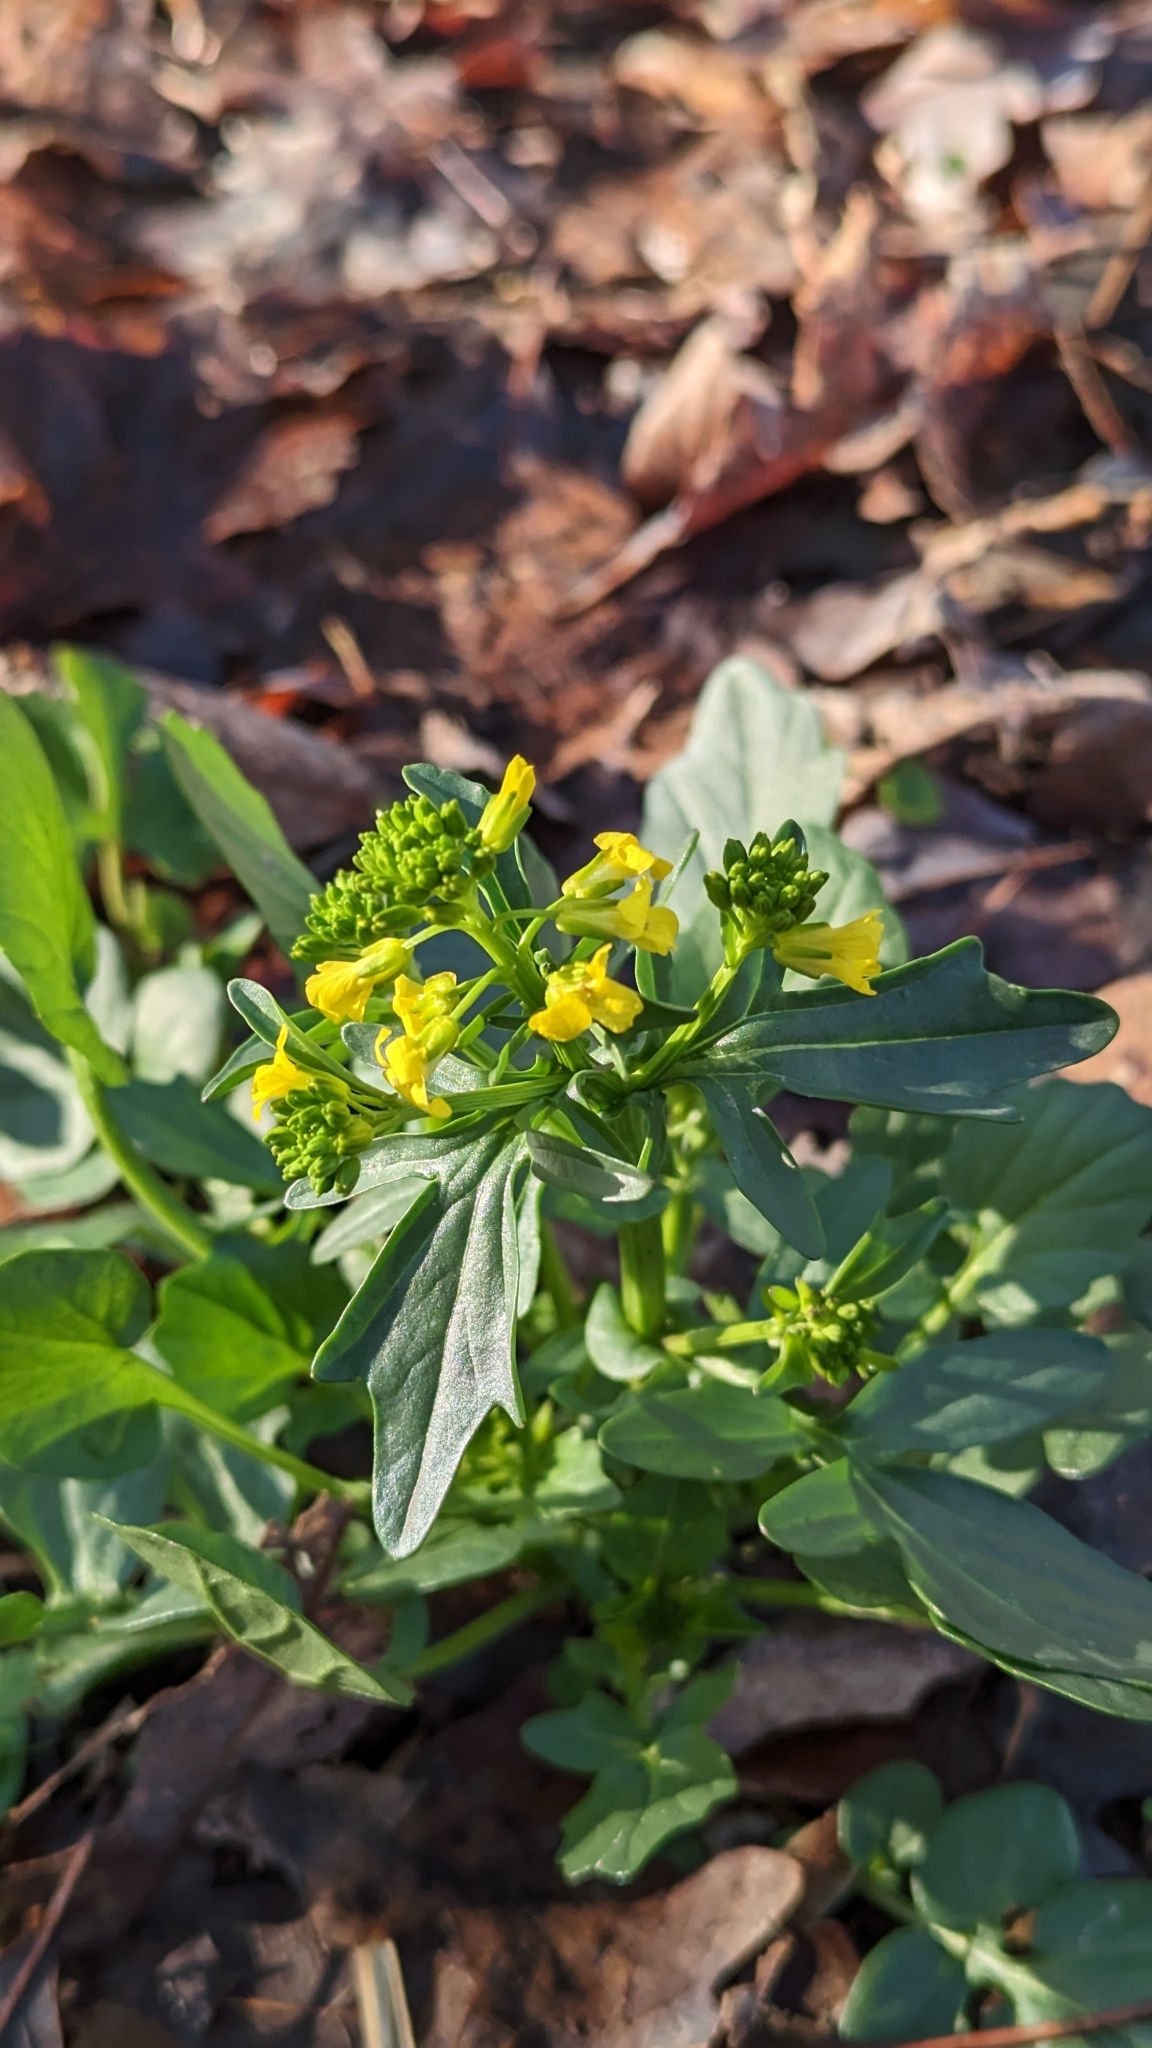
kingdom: Plantae
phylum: Tracheophyta
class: Magnoliopsida
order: Brassicales
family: Brassicaceae
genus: Barbarea
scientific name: Barbarea vulgaris
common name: Cressy-greens
